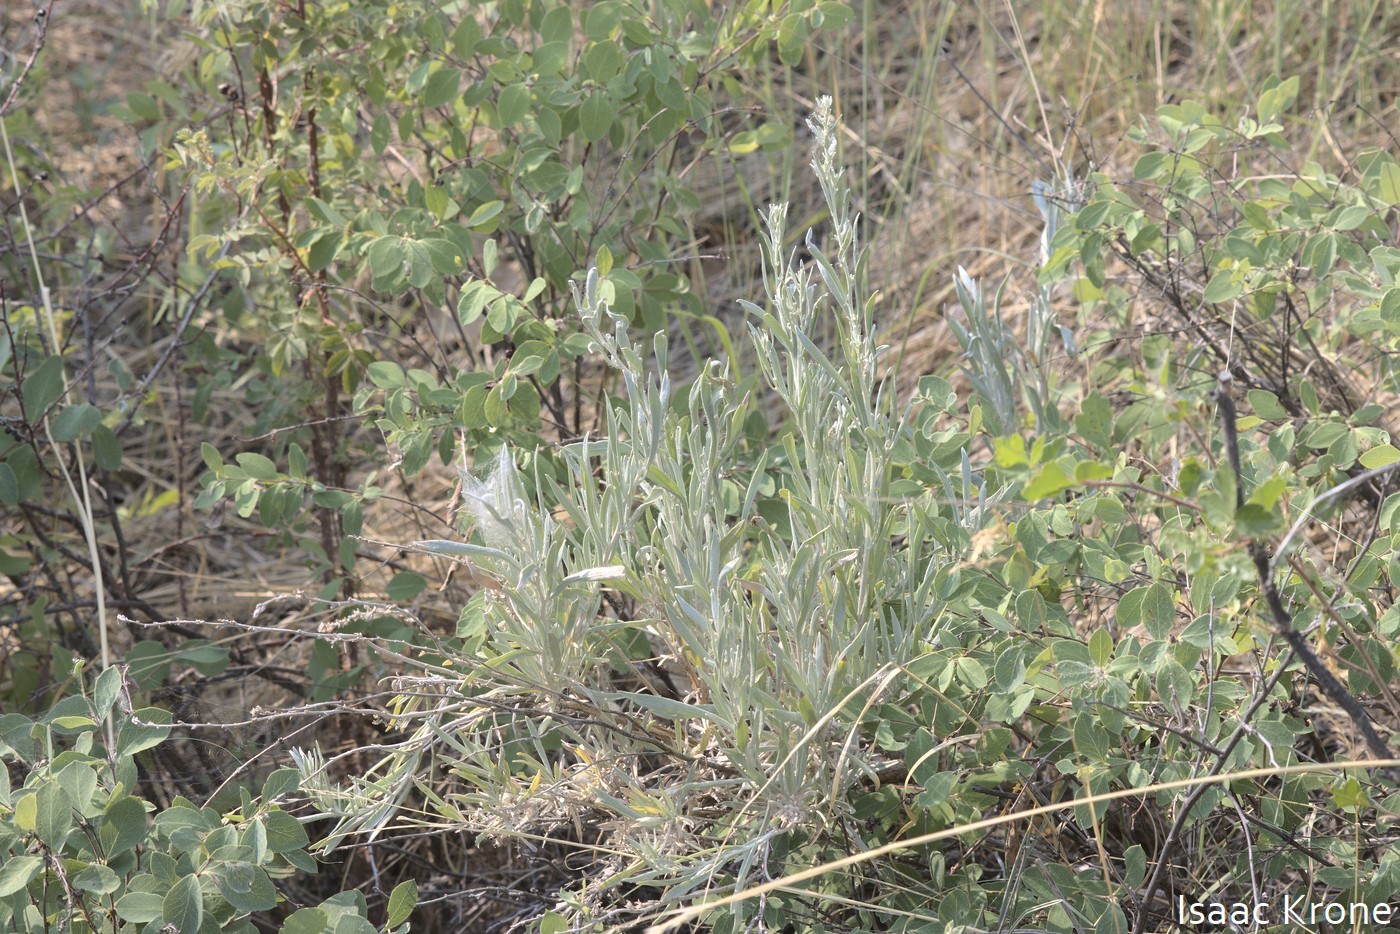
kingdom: Plantae
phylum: Tracheophyta
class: Magnoliopsida
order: Asterales
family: Asteraceae
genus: Artemisia
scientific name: Artemisia cana
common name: Silver sagebrush
